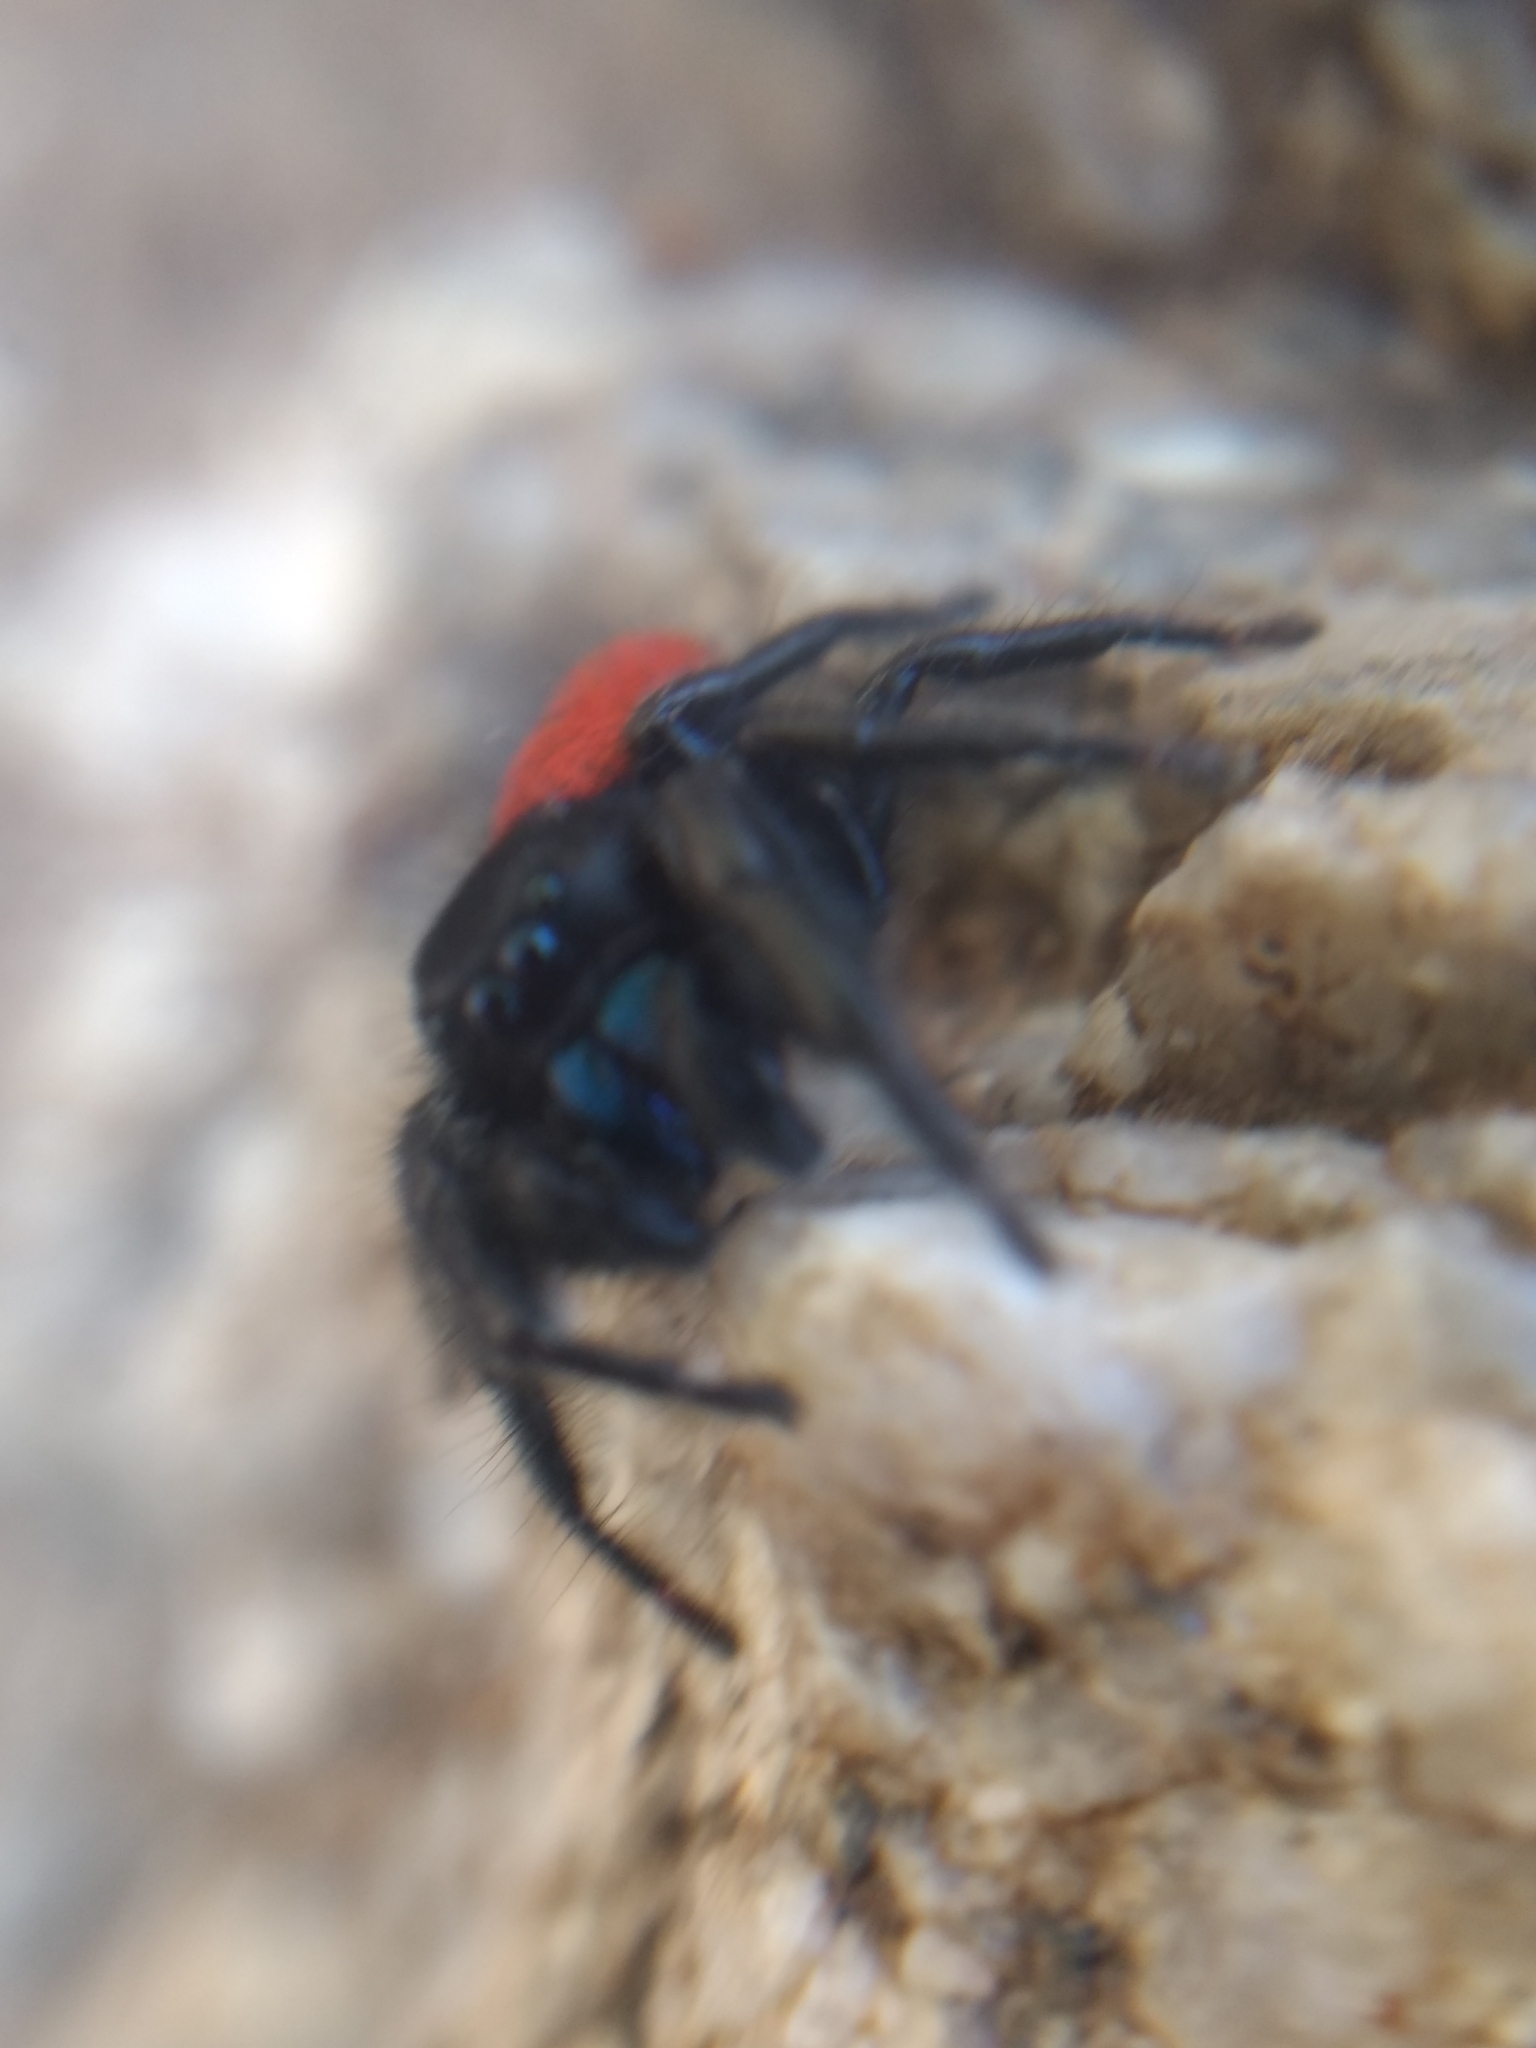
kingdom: Animalia
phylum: Arthropoda
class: Arachnida
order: Araneae
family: Salticidae
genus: Phidippus
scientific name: Phidippus johnsoni
